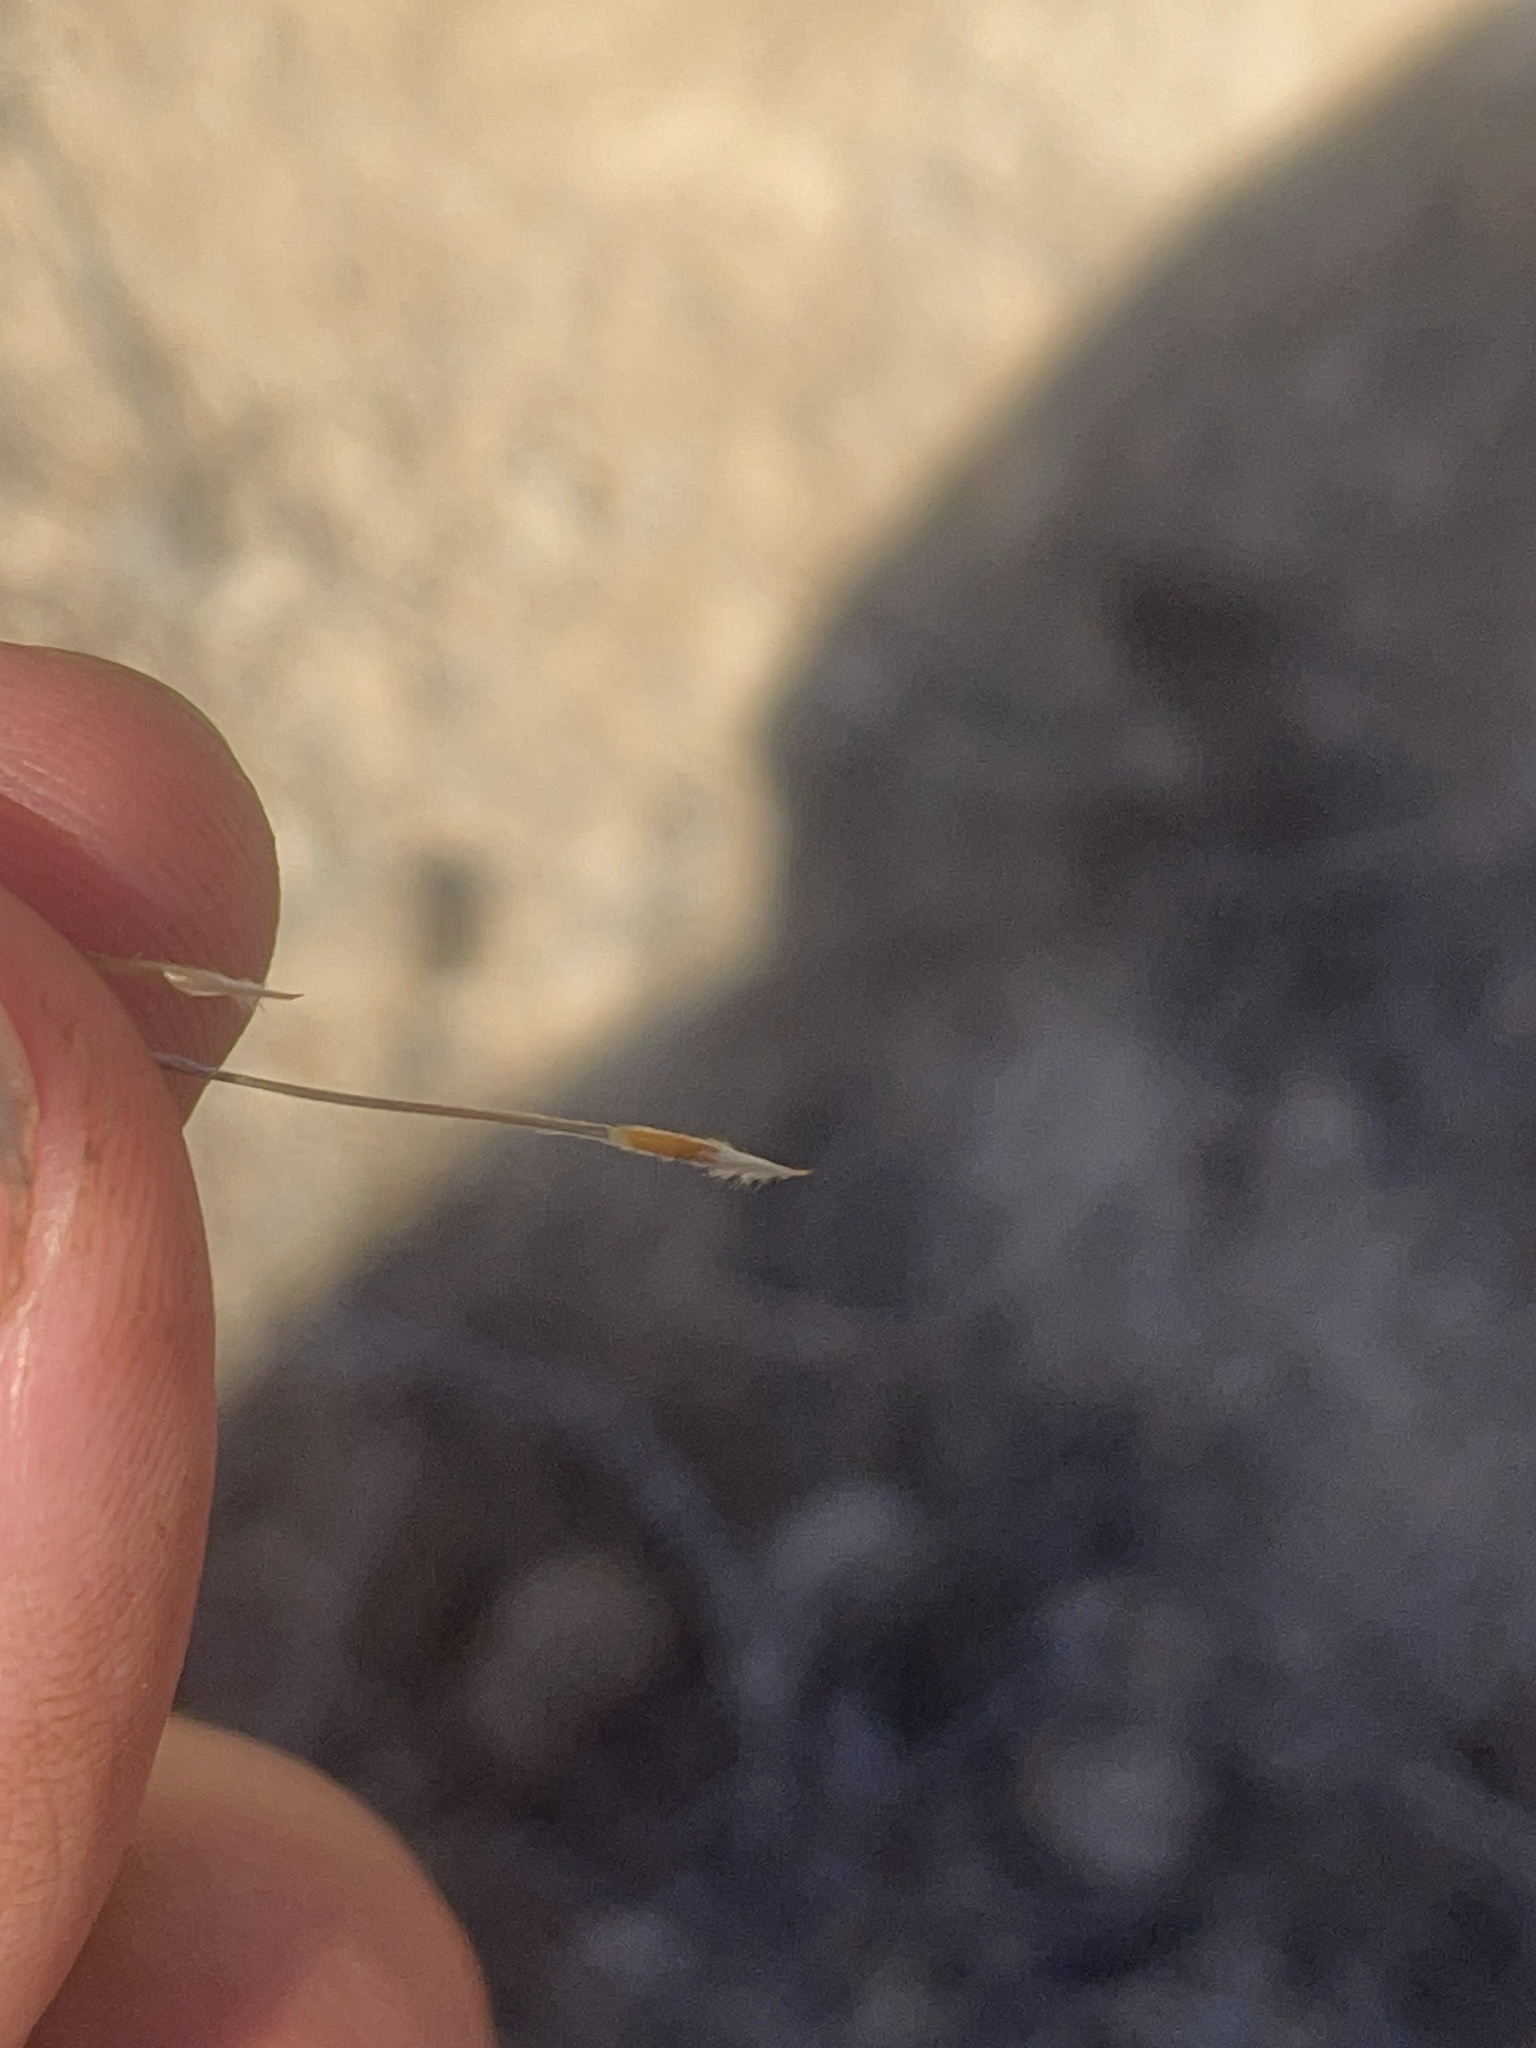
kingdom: Plantae
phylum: Tracheophyta
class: Liliopsida
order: Poales
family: Poaceae
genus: Austrostipa
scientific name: Austrostipa nullanulla
